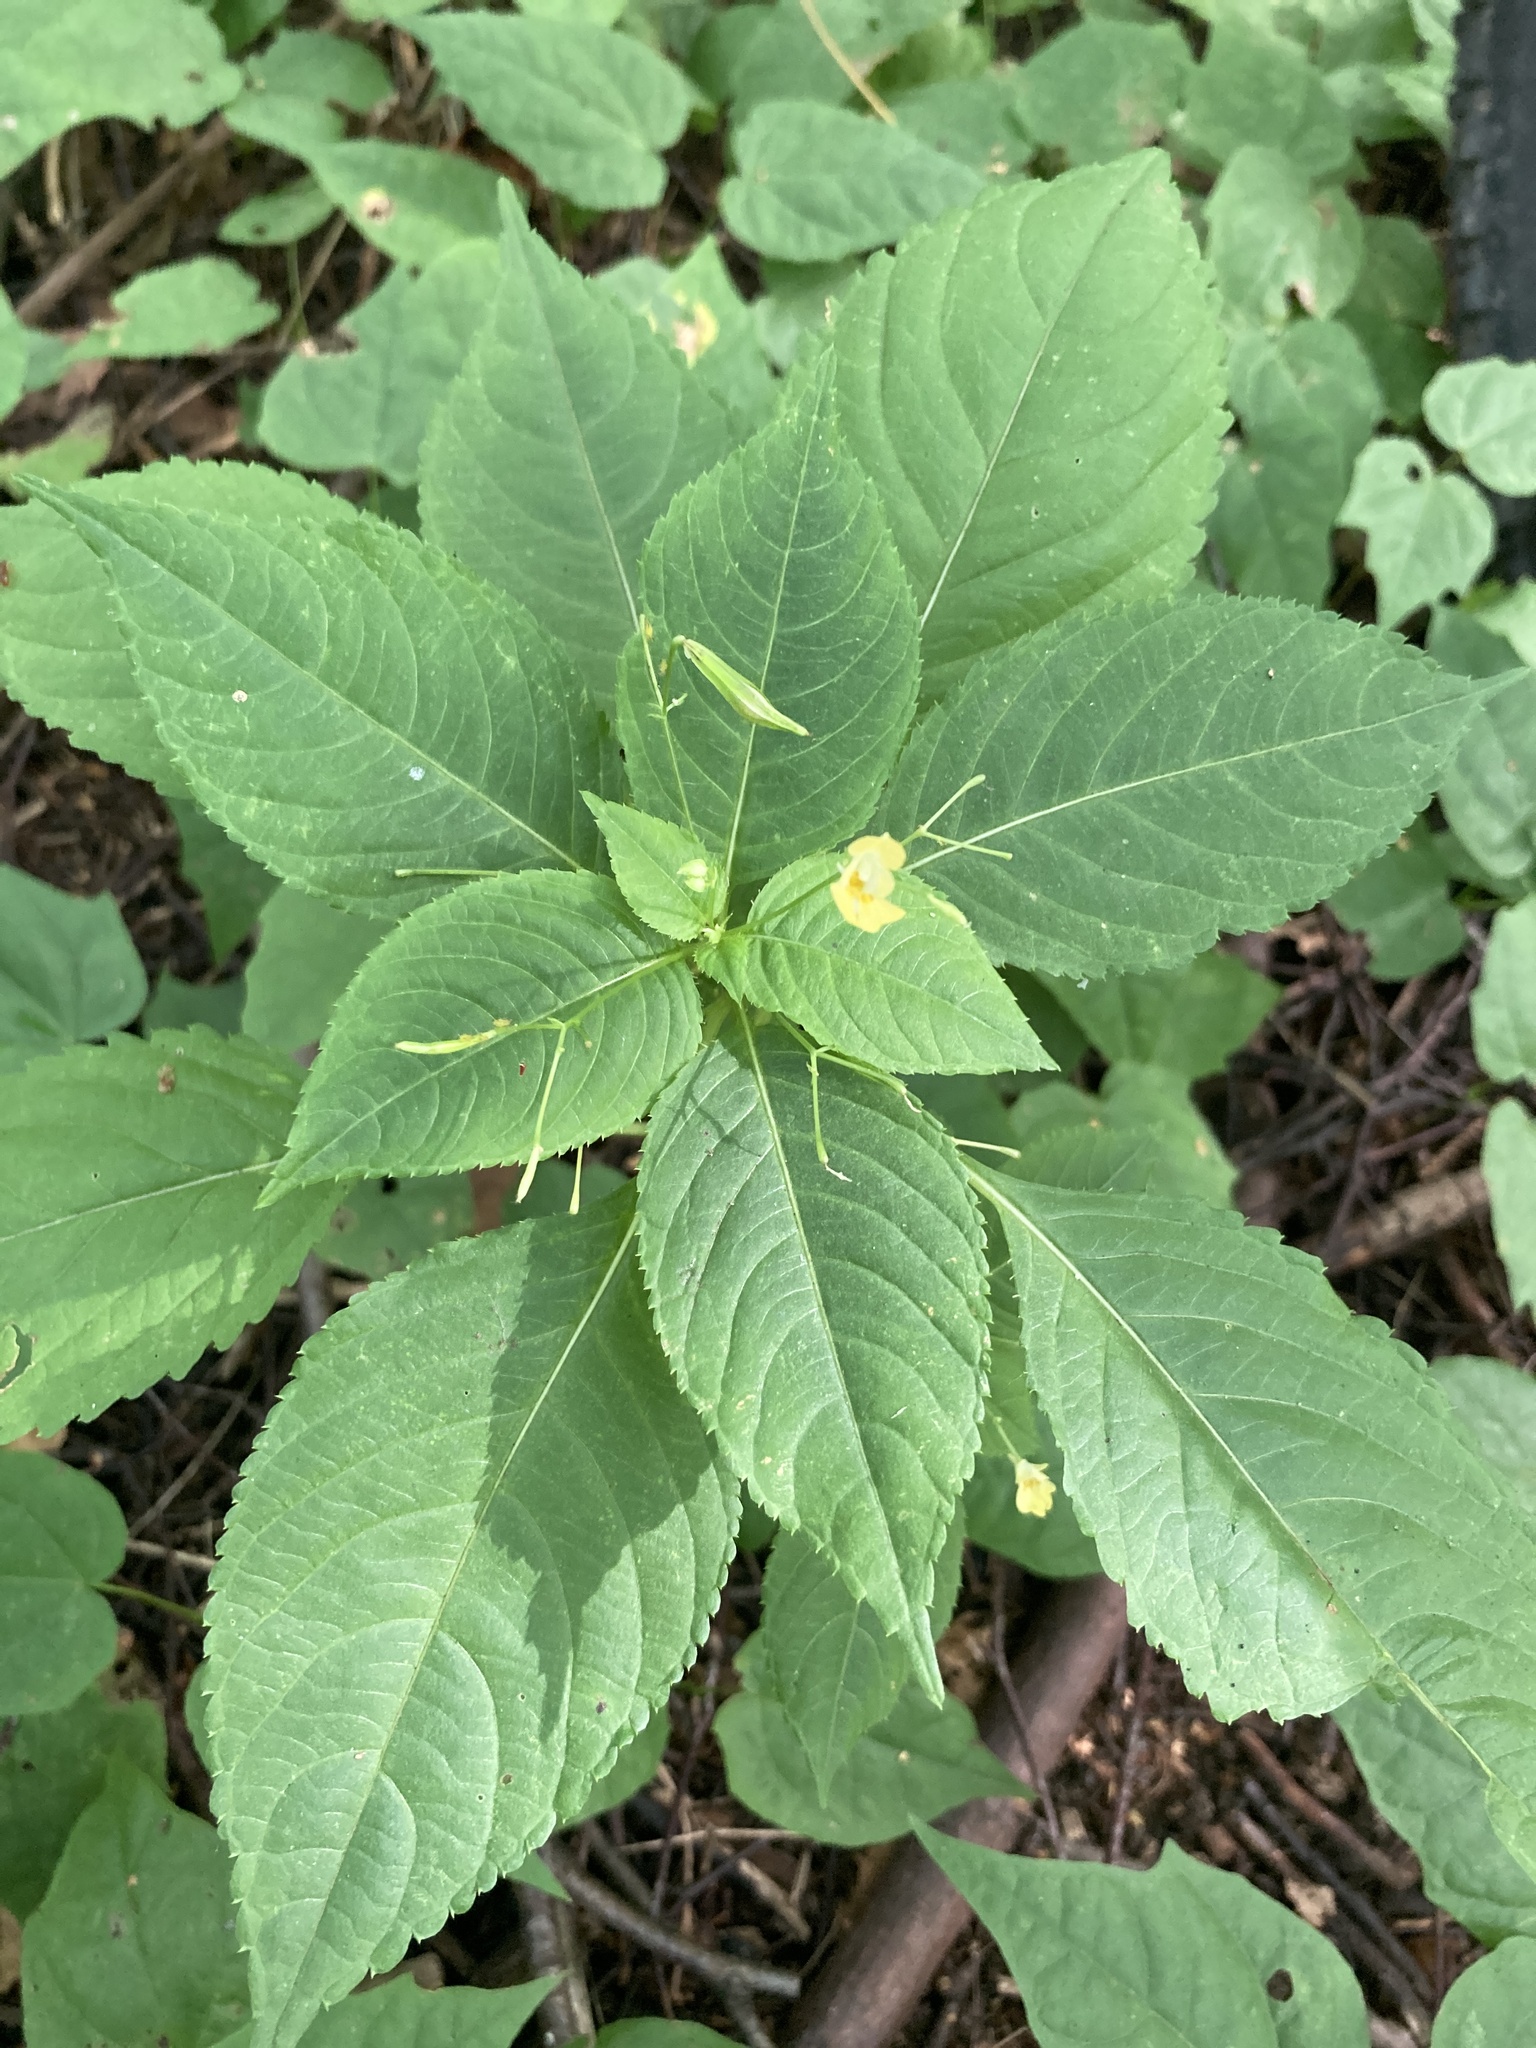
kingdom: Plantae
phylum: Tracheophyta
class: Magnoliopsida
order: Ericales
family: Balsaminaceae
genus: Impatiens
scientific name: Impatiens parviflora
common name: Small balsam
